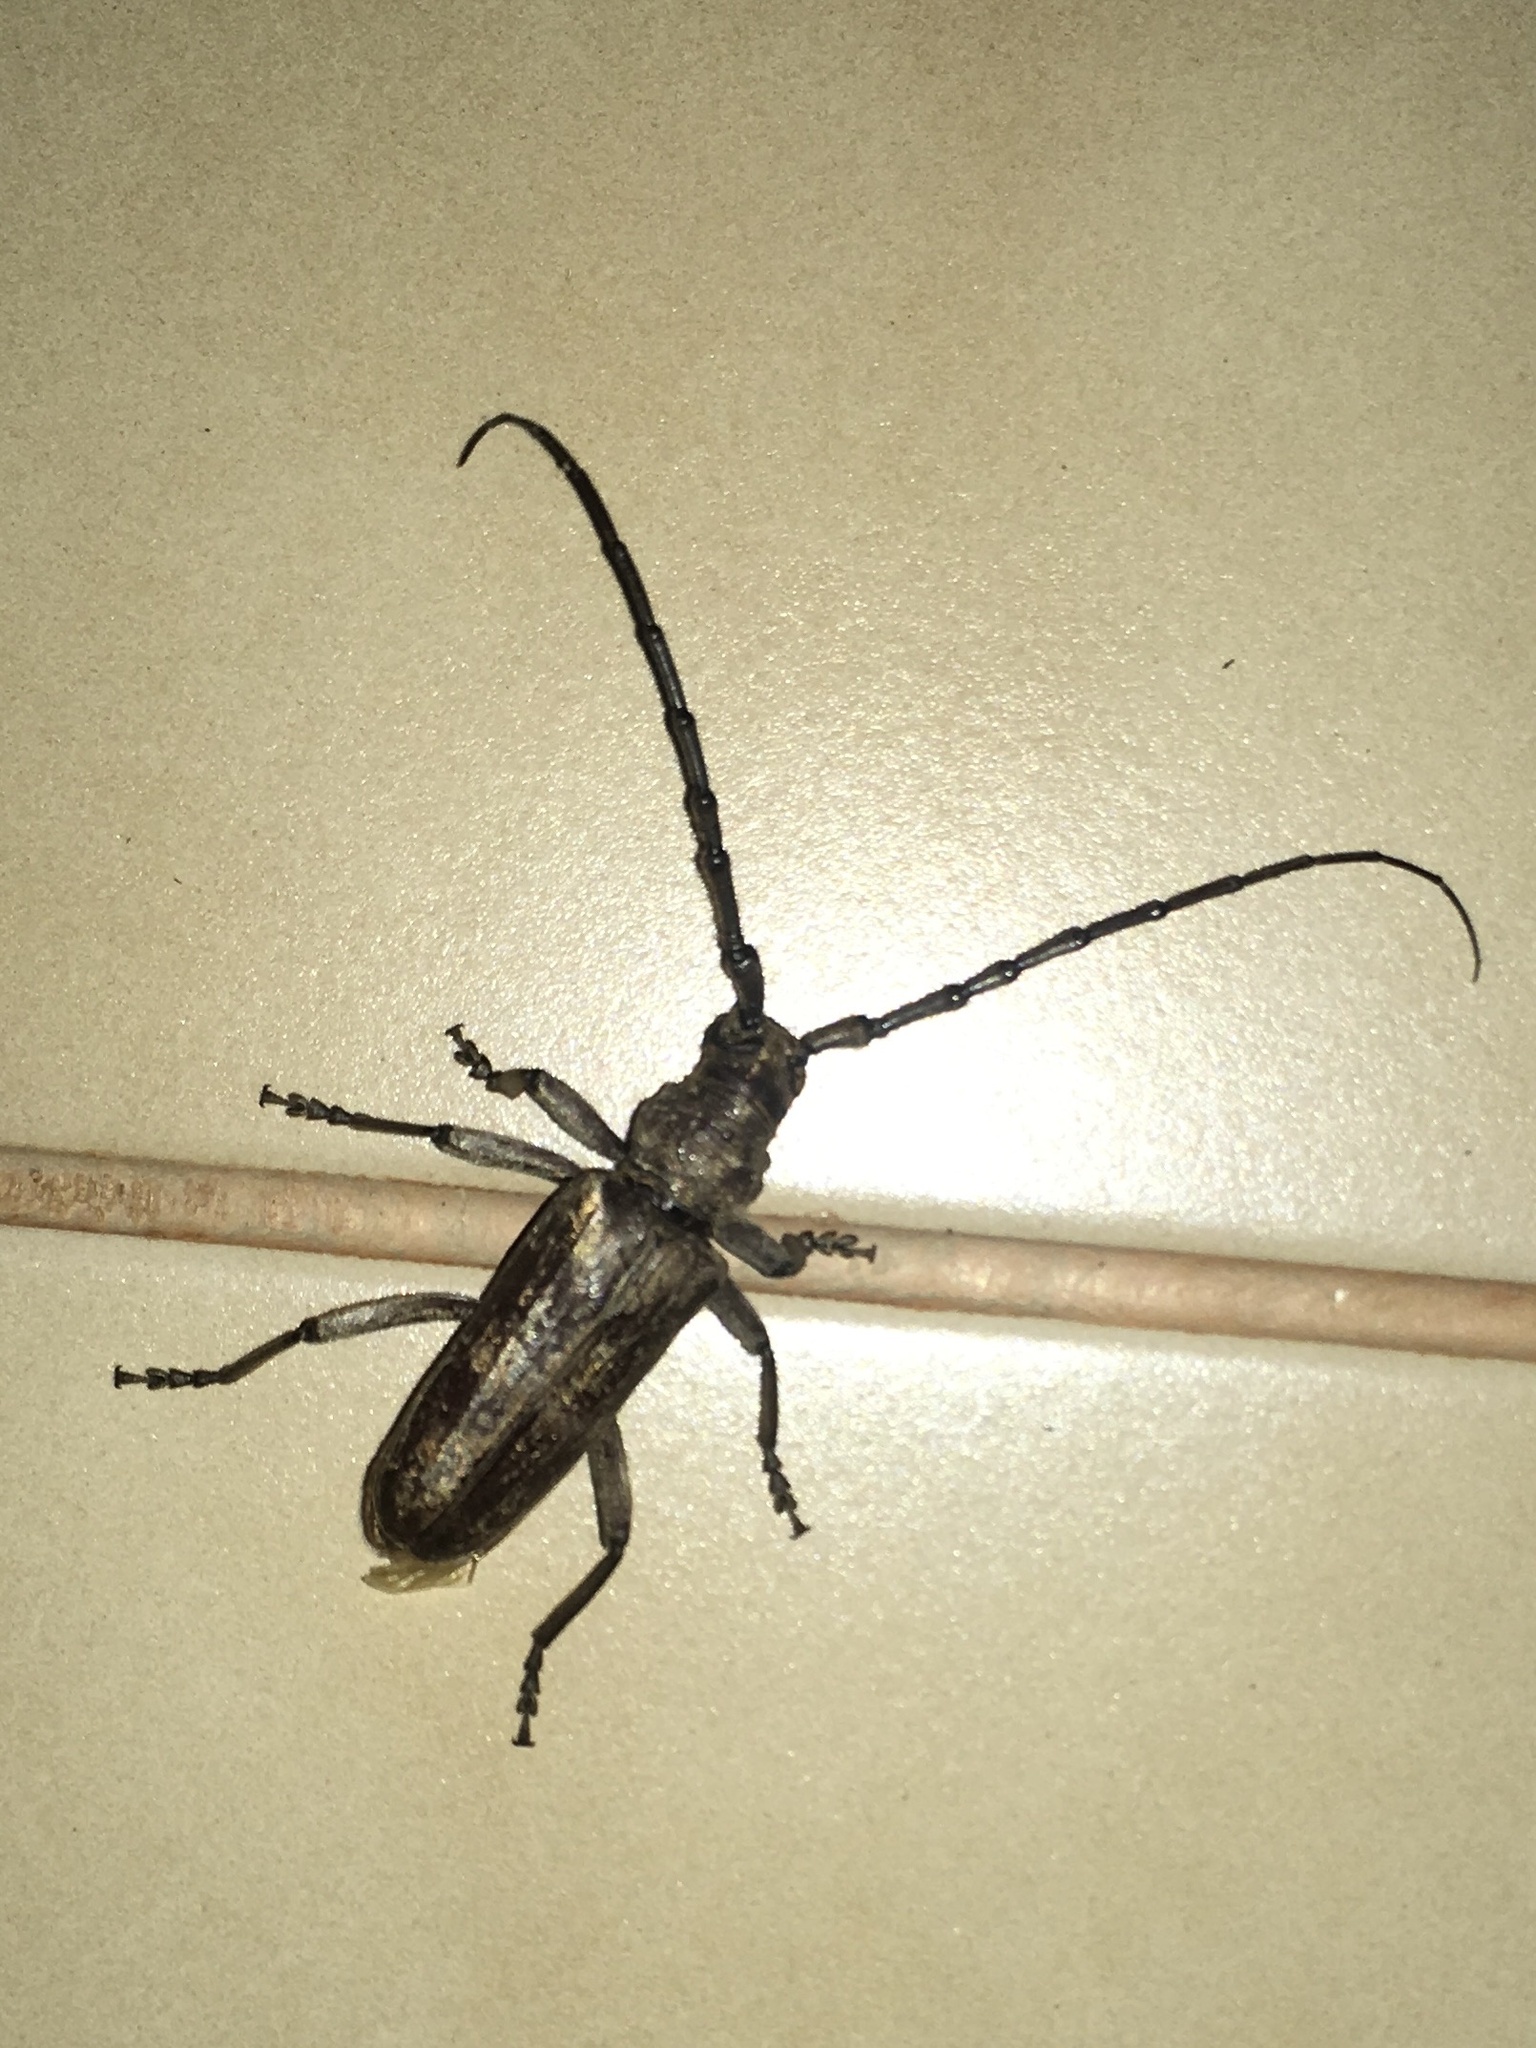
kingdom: Animalia
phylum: Arthropoda
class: Insecta
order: Coleoptera
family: Cerambycidae
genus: Taurotagus
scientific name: Taurotagus klugii
